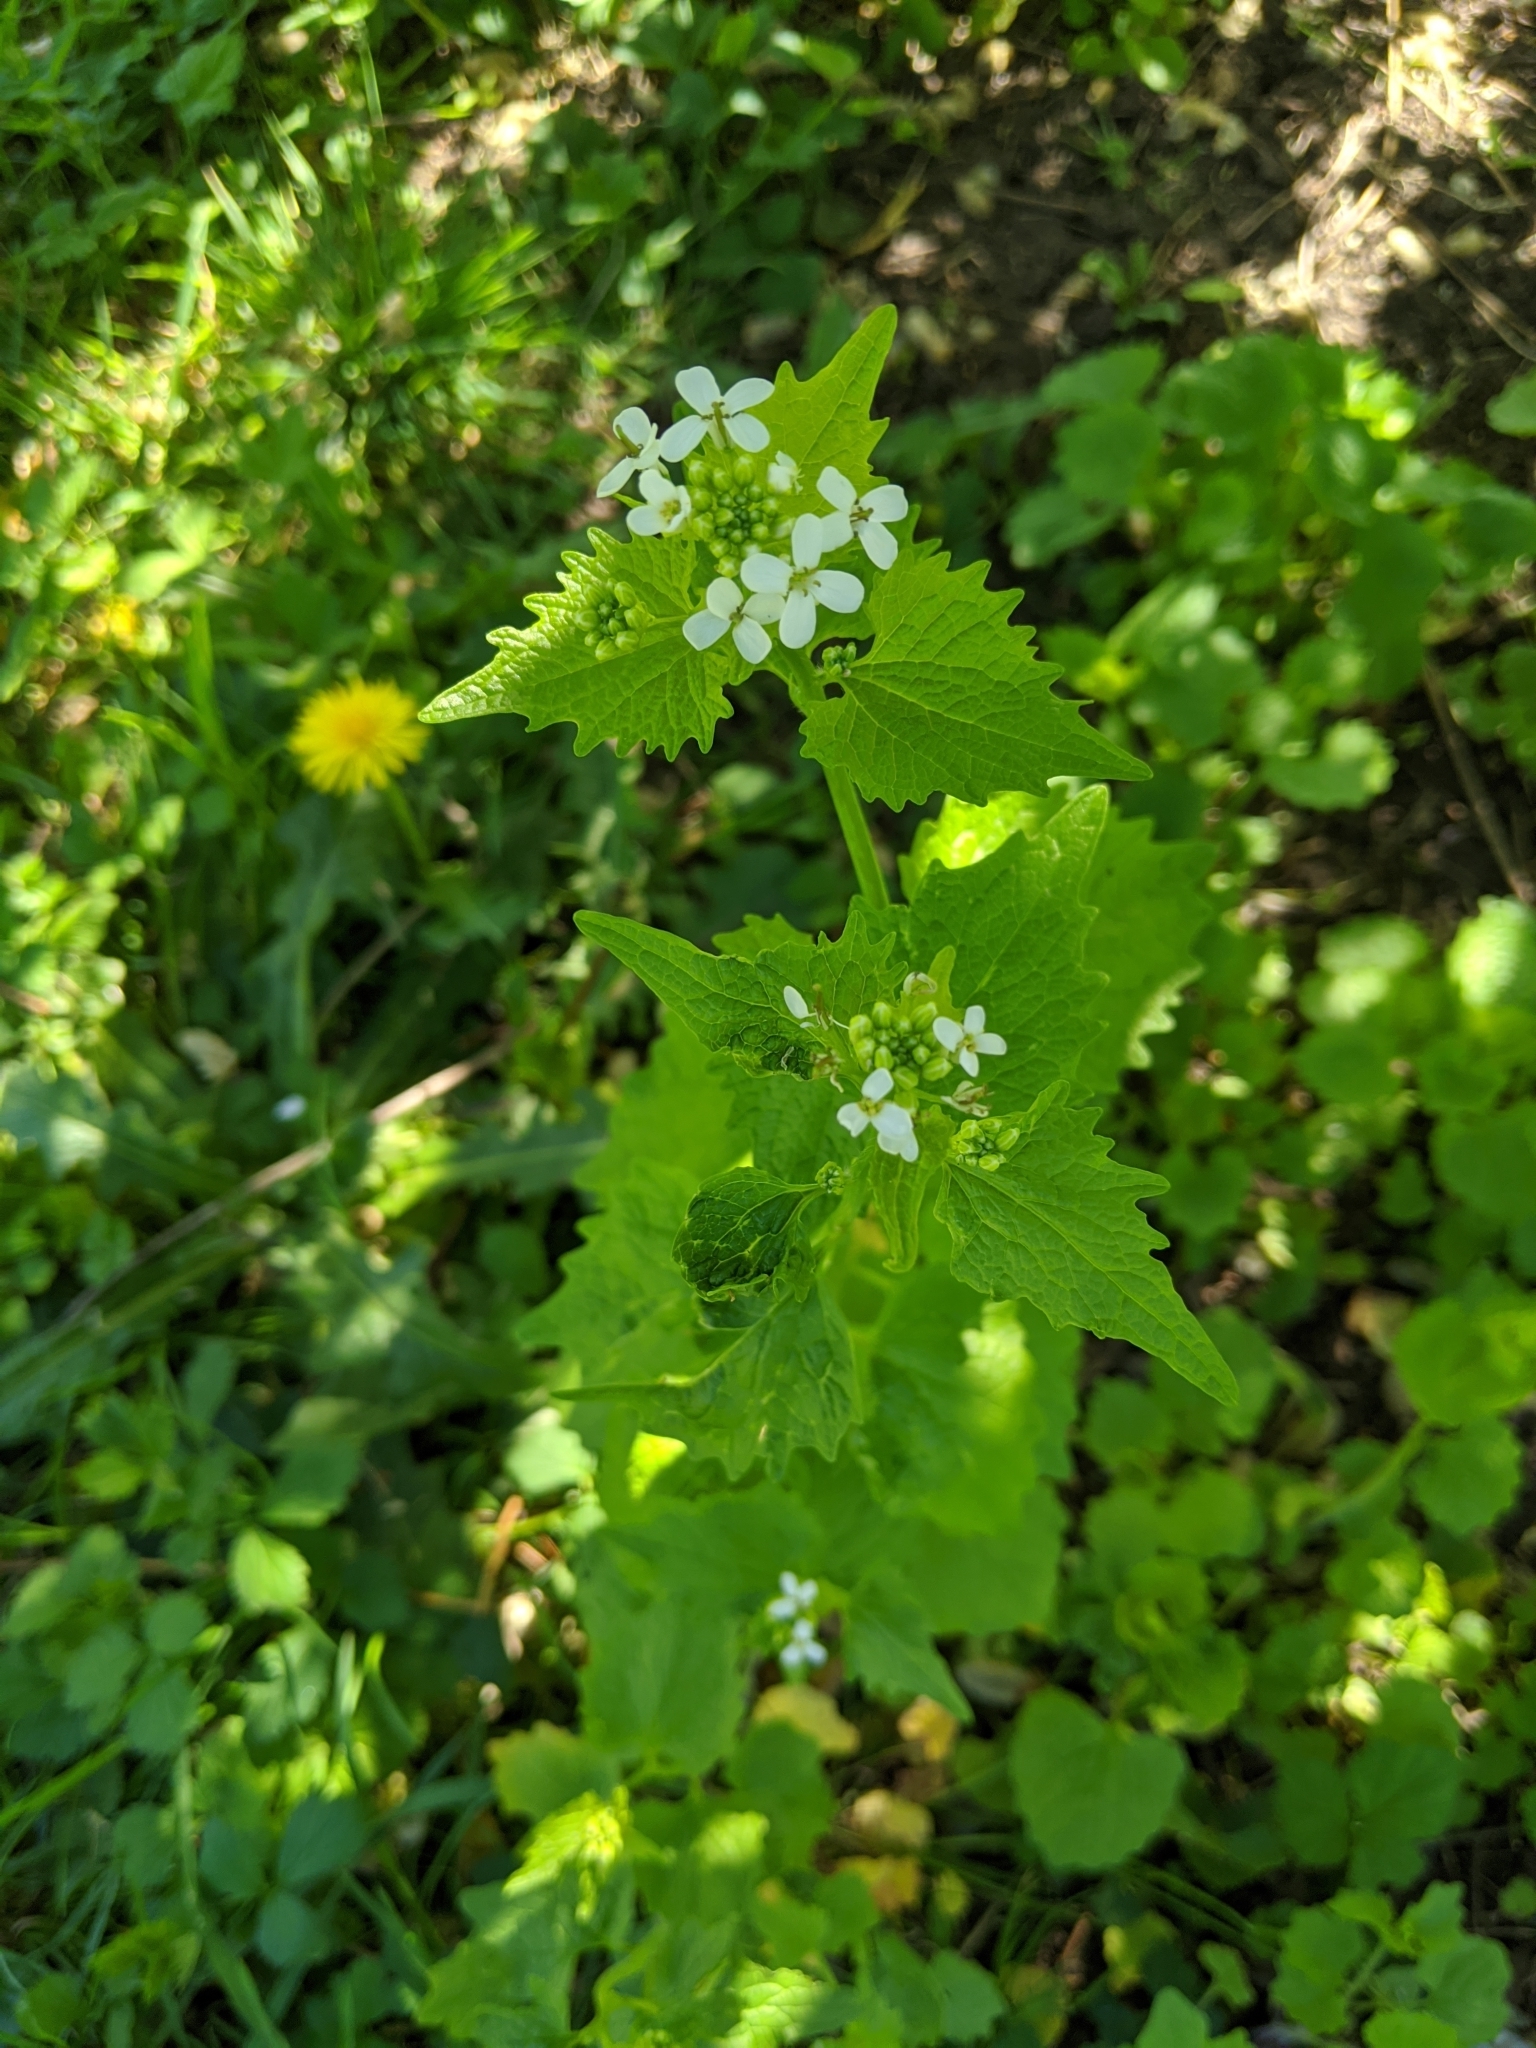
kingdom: Plantae
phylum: Tracheophyta
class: Magnoliopsida
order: Brassicales
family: Brassicaceae
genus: Alliaria
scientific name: Alliaria petiolata
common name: Garlic mustard
